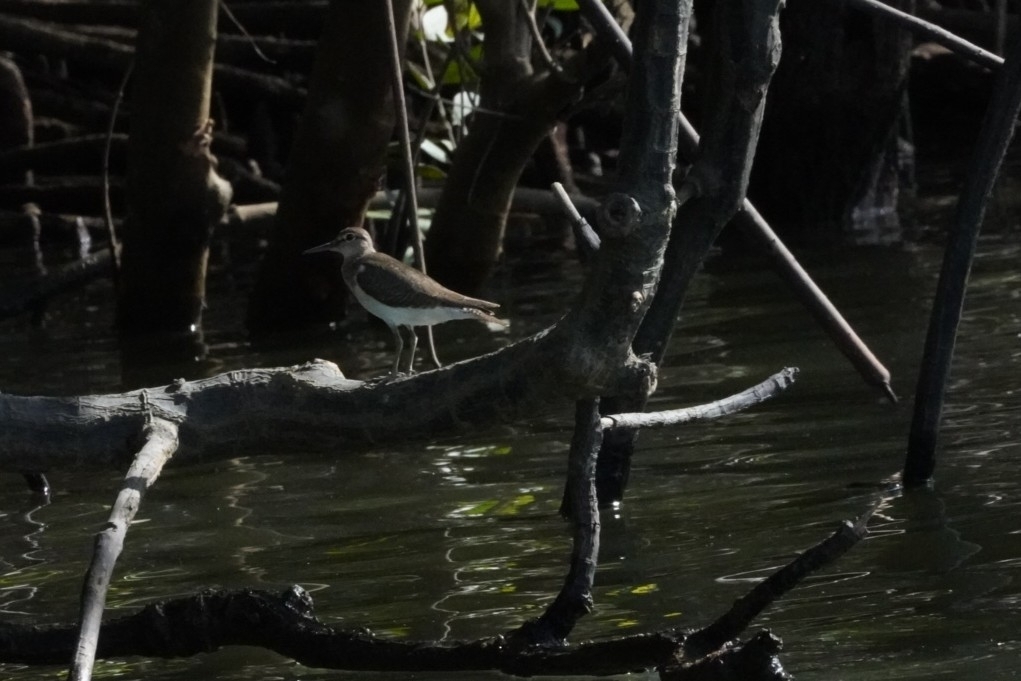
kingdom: Animalia
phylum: Chordata
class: Aves
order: Charadriiformes
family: Scolopacidae
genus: Actitis
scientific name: Actitis hypoleucos
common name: Common sandpiper
